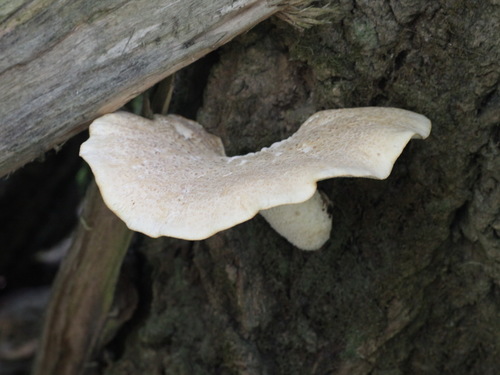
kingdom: Fungi
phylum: Basidiomycota
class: Agaricomycetes
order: Polyporales
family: Polyporaceae
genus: Cerioporus
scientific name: Cerioporus squamosus
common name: Dryad's saddle
